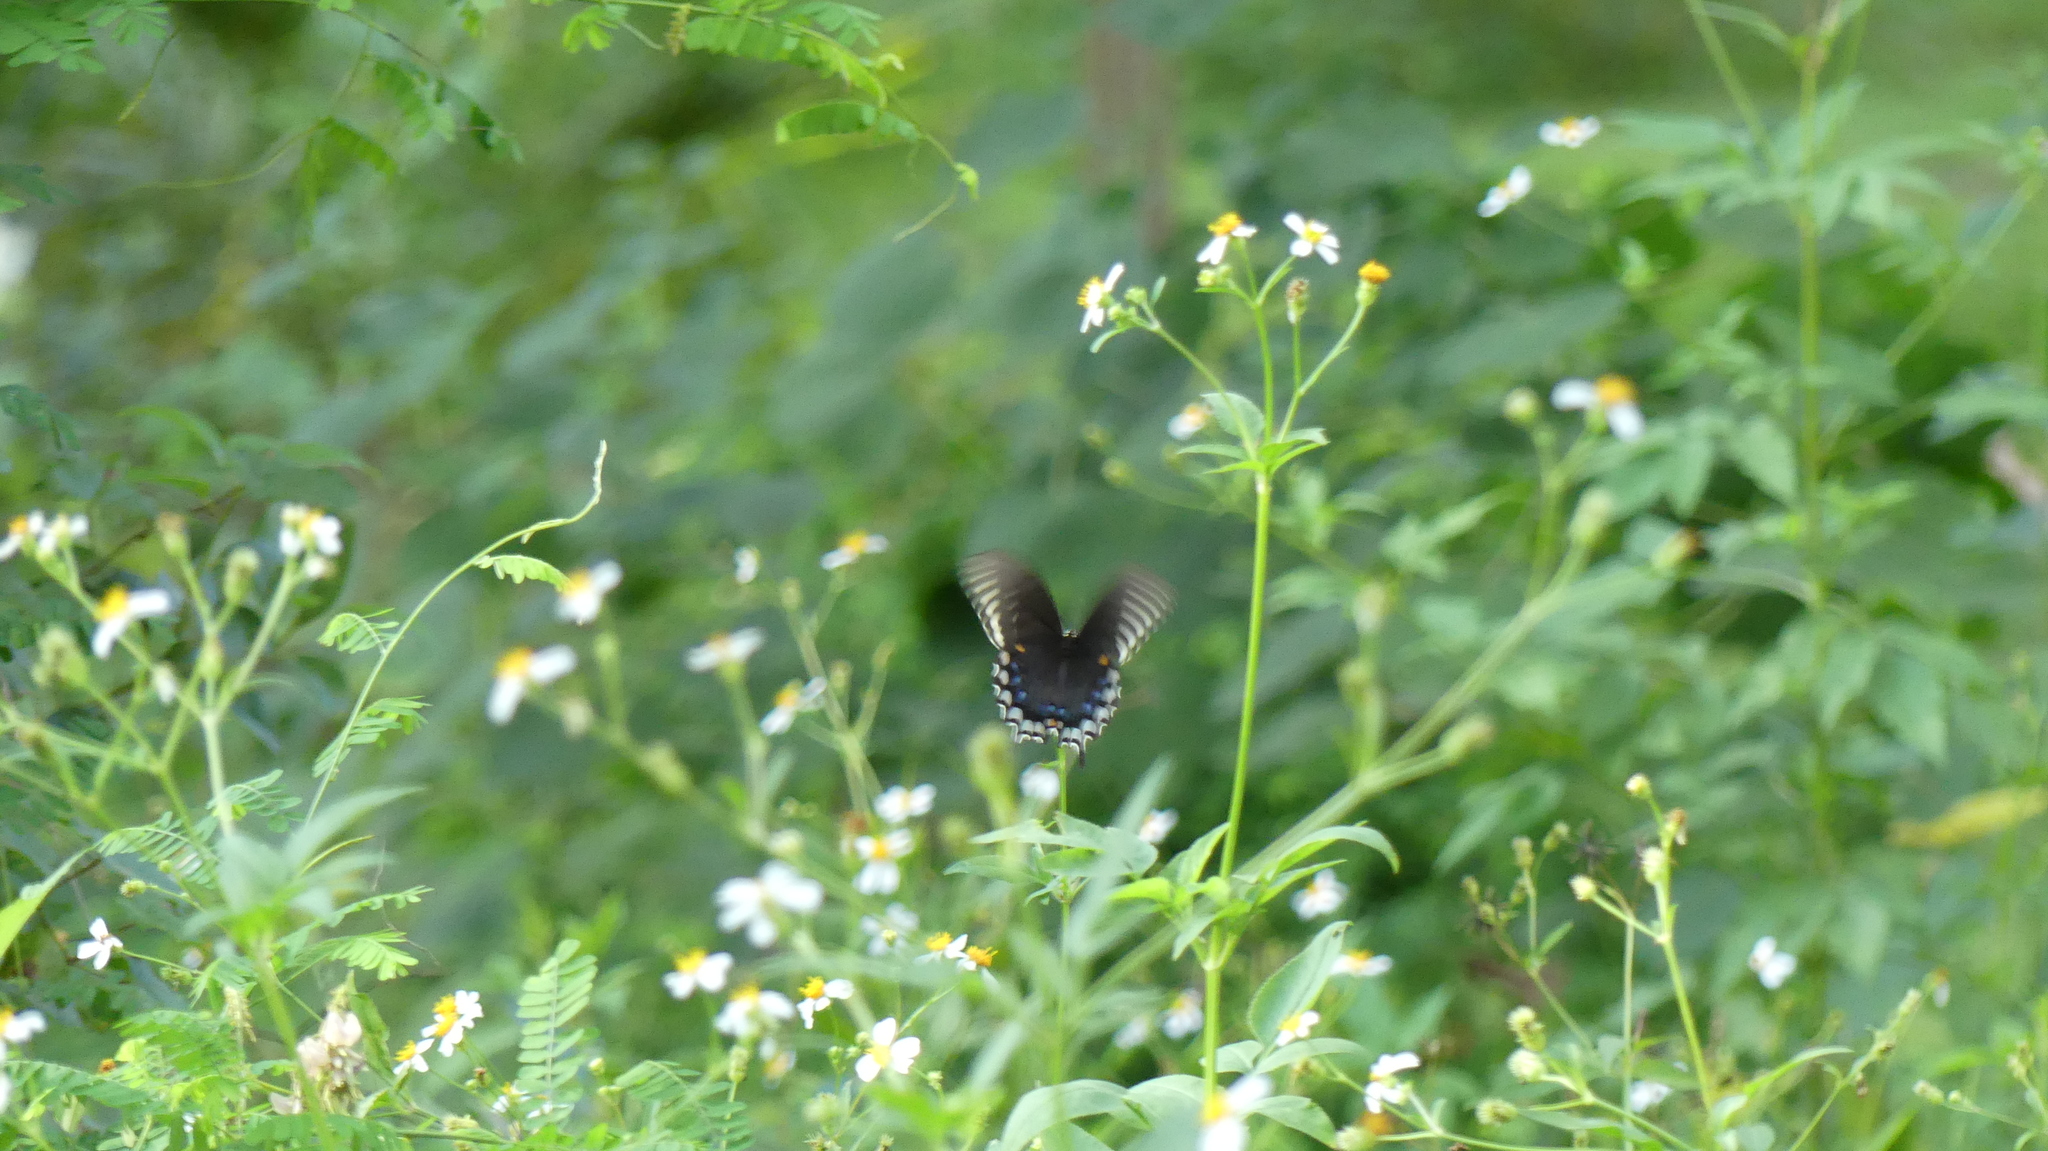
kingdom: Animalia
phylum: Arthropoda
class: Insecta
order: Lepidoptera
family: Papilionidae
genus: Papilio
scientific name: Papilio troilus
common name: Spicebush swallowtail
